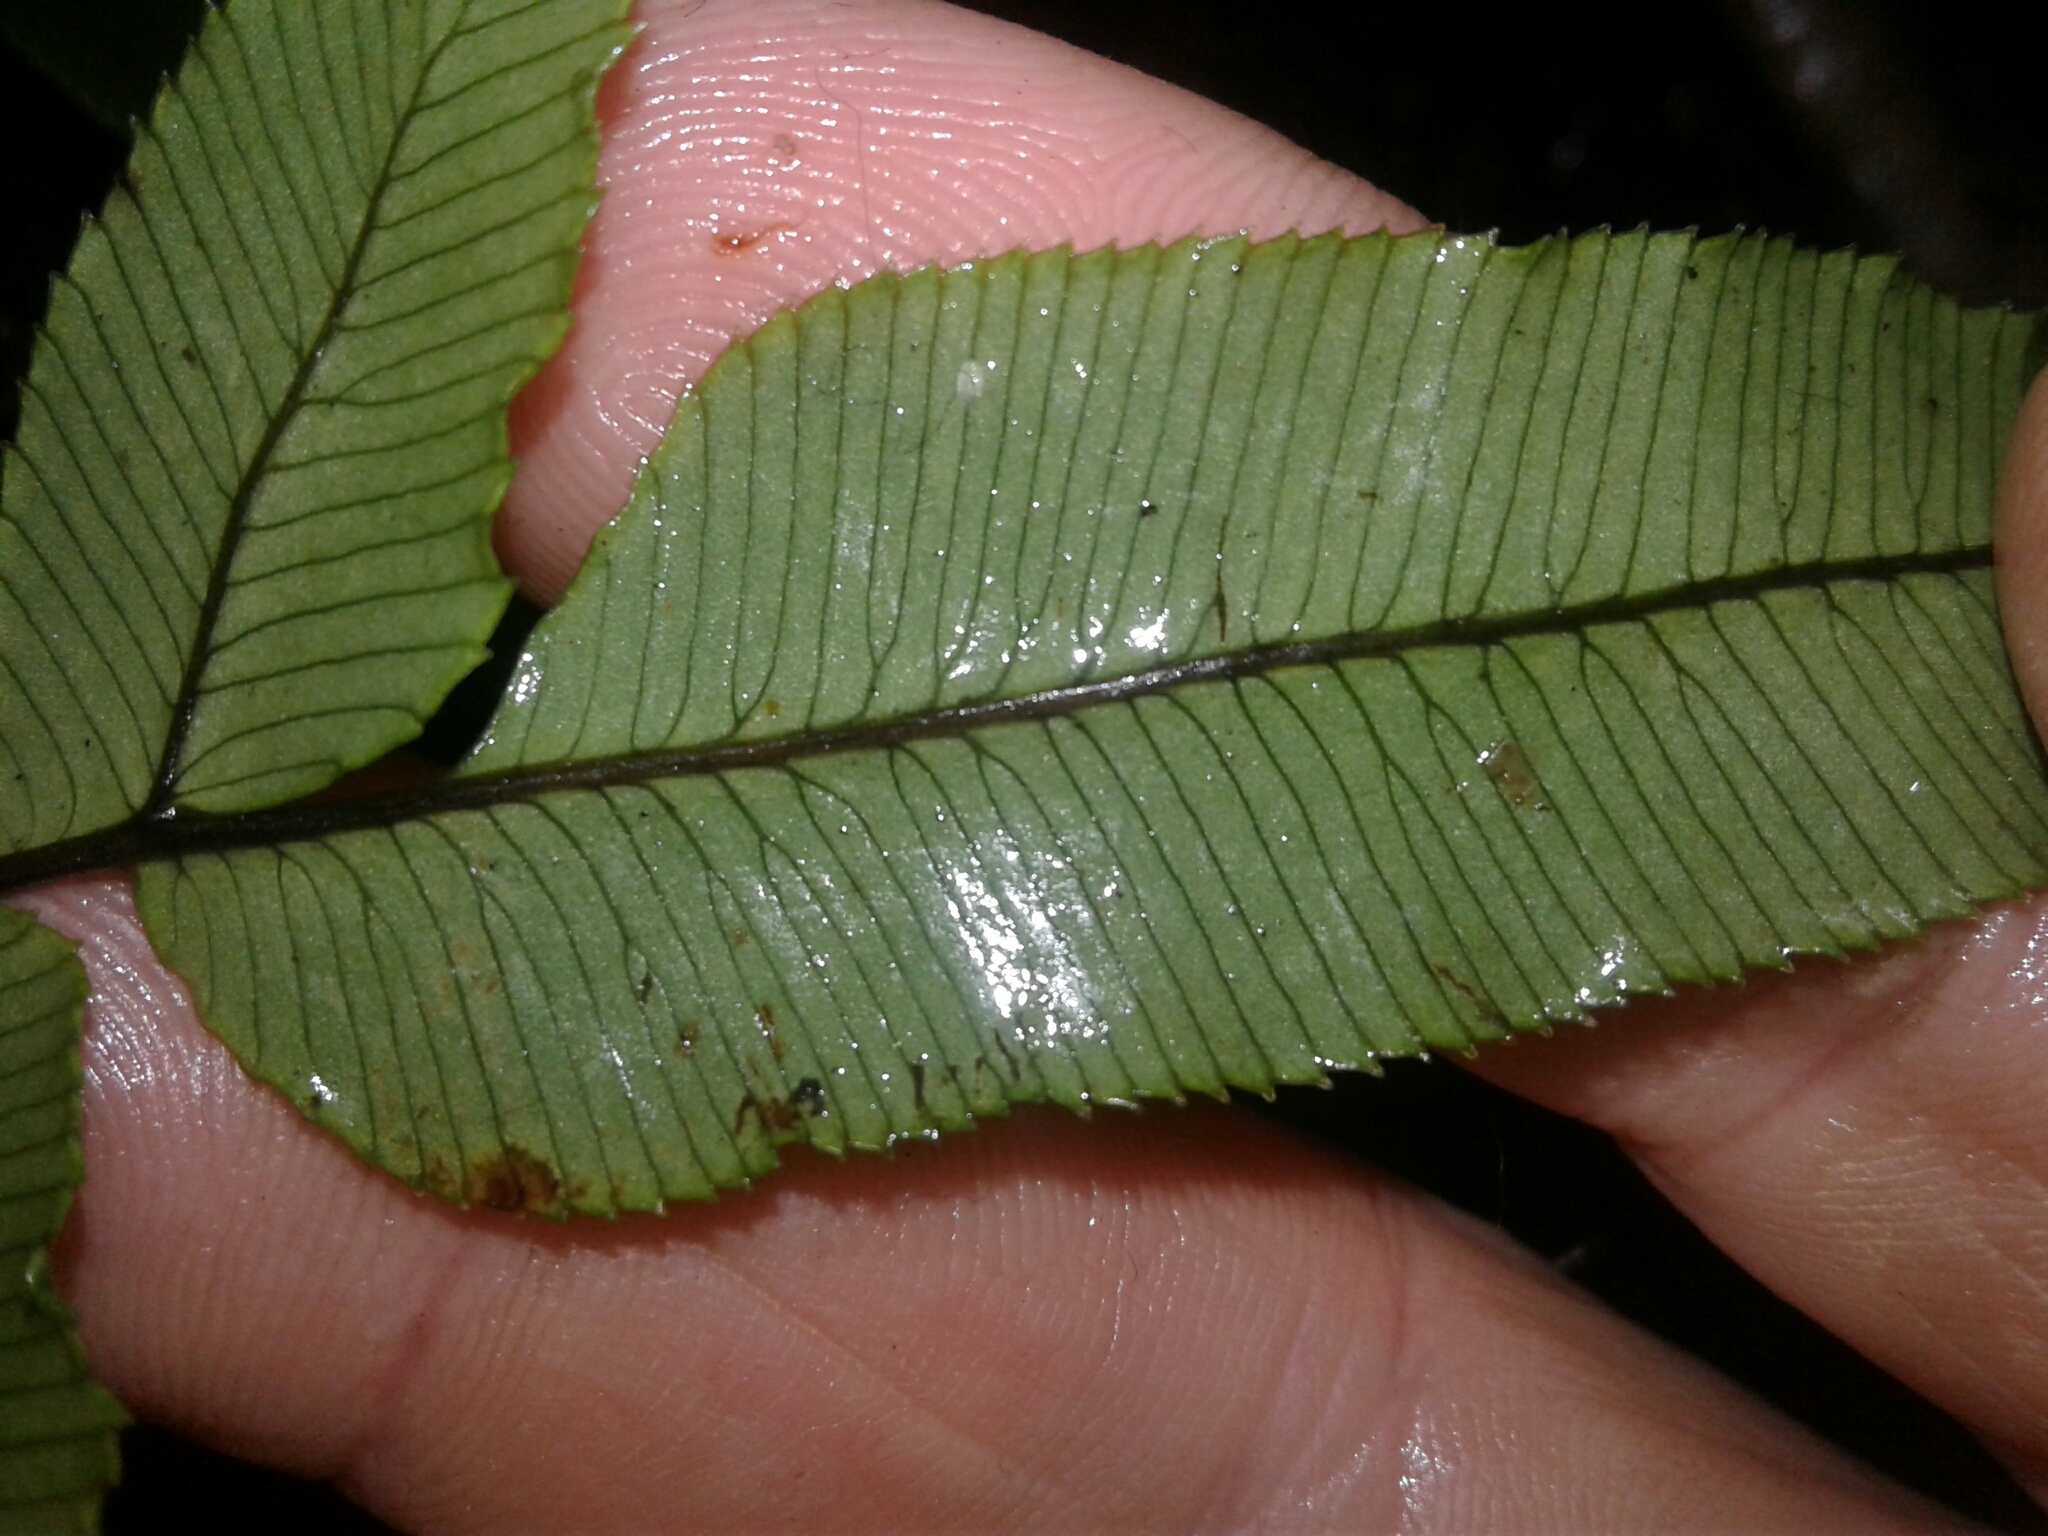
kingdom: Plantae
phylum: Tracheophyta
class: Polypodiopsida
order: Polypodiales
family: Blechnaceae
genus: Parablechnum
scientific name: Parablechnum procerum
